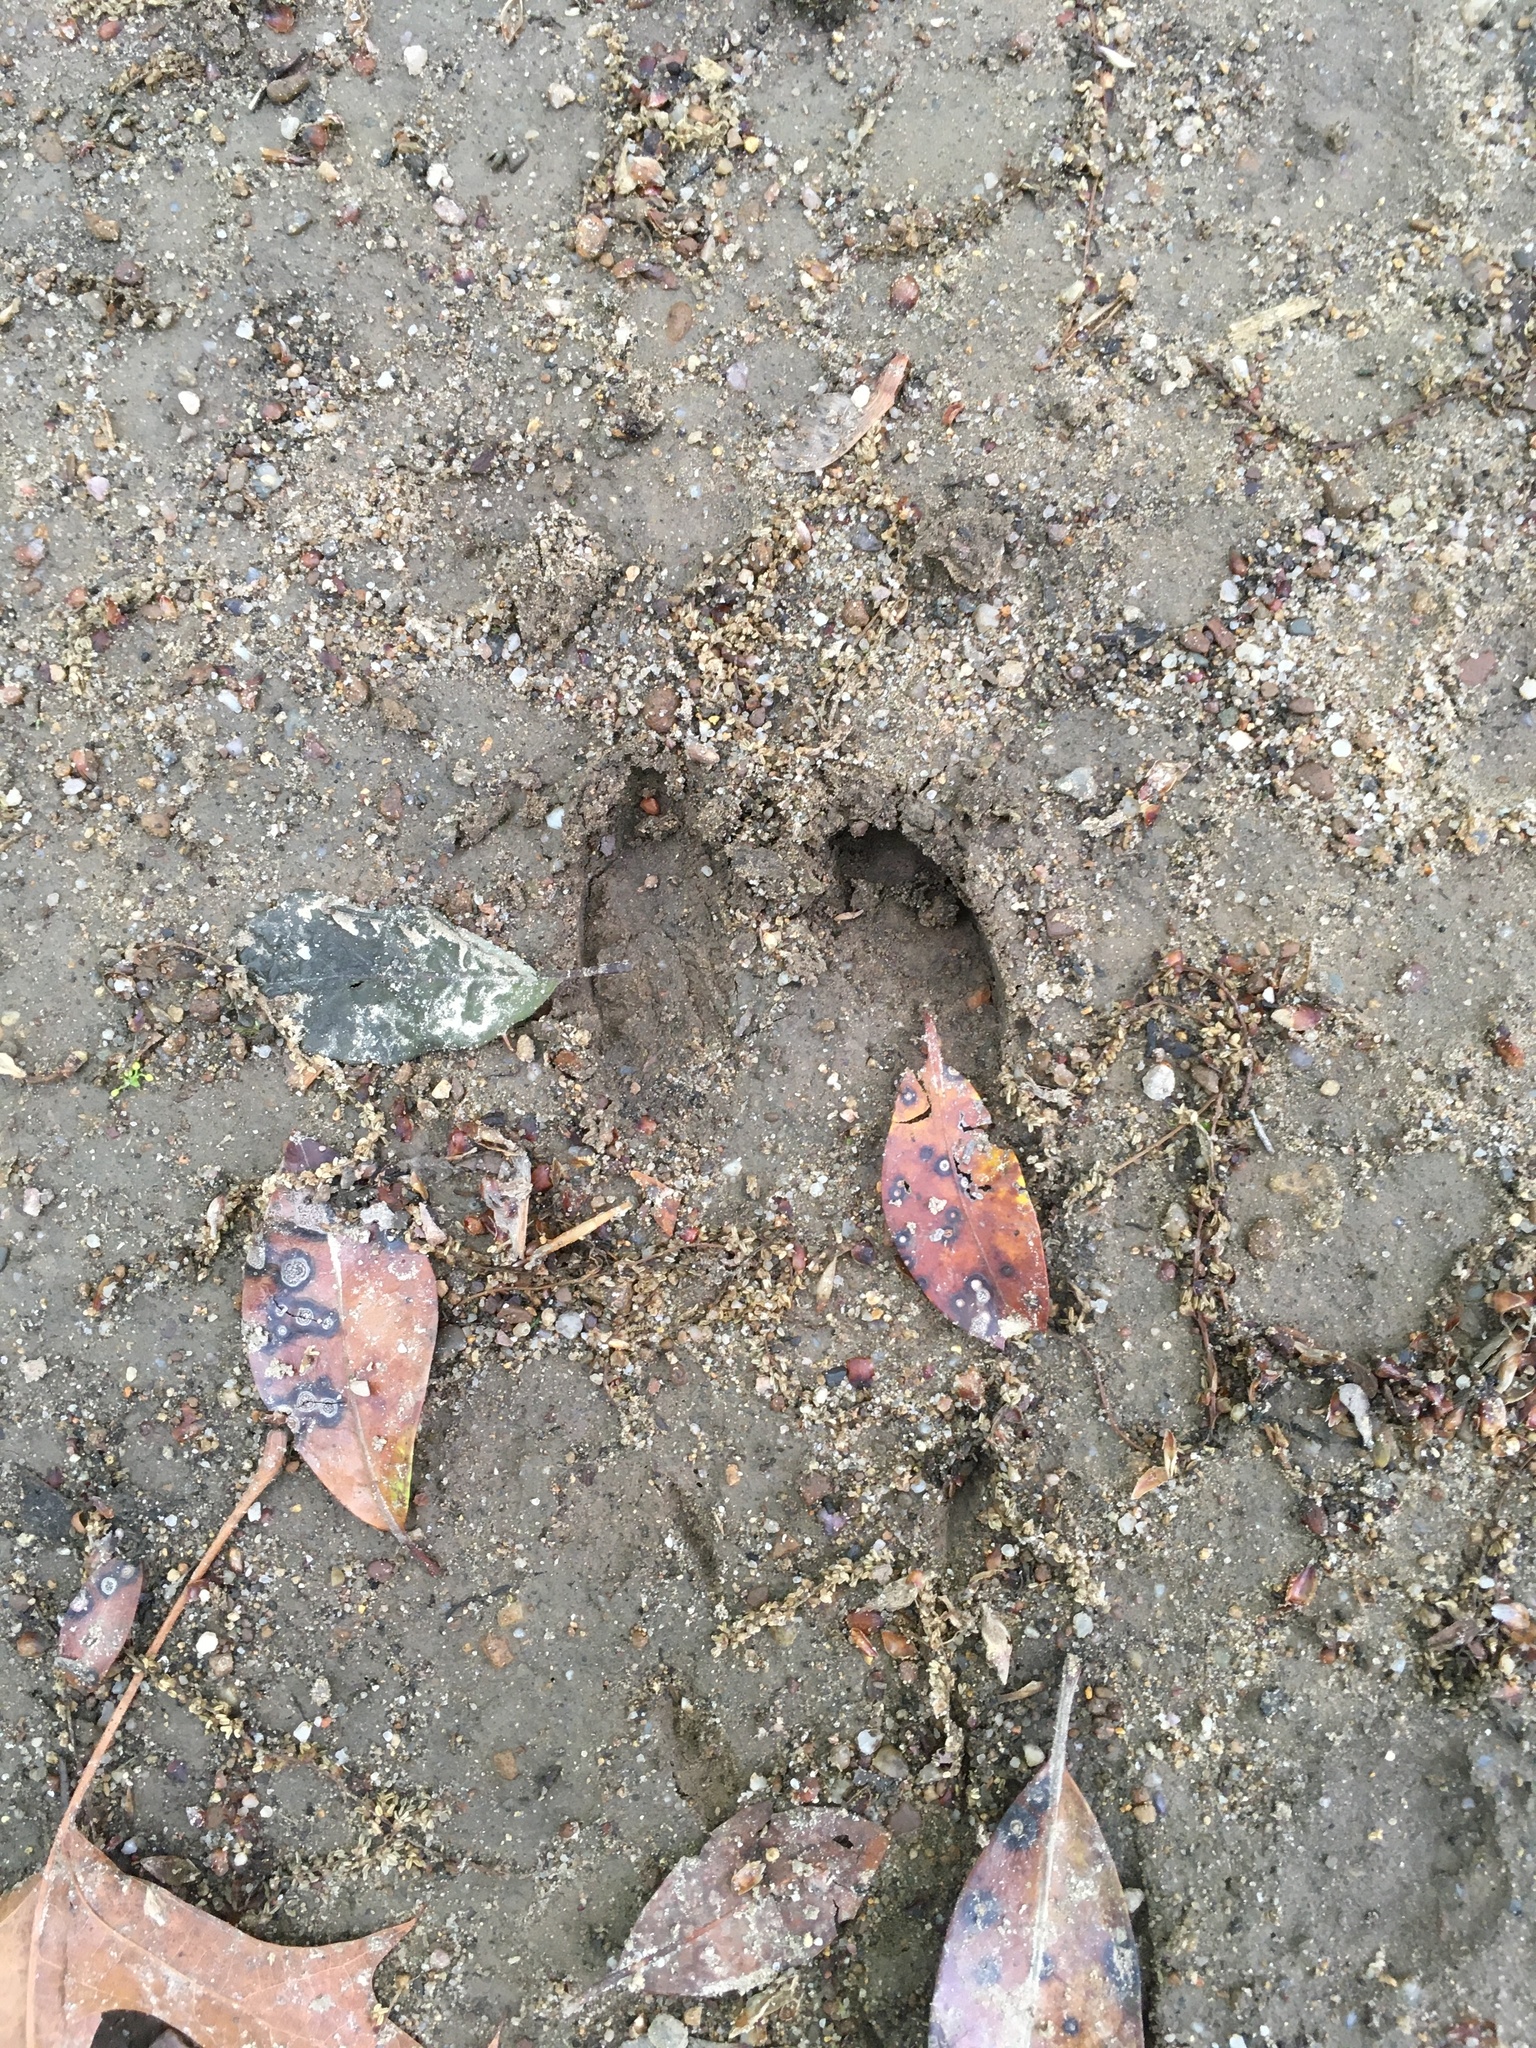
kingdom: Animalia
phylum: Chordata
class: Mammalia
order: Artiodactyla
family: Cervidae
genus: Odocoileus
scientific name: Odocoileus virginianus
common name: White-tailed deer
